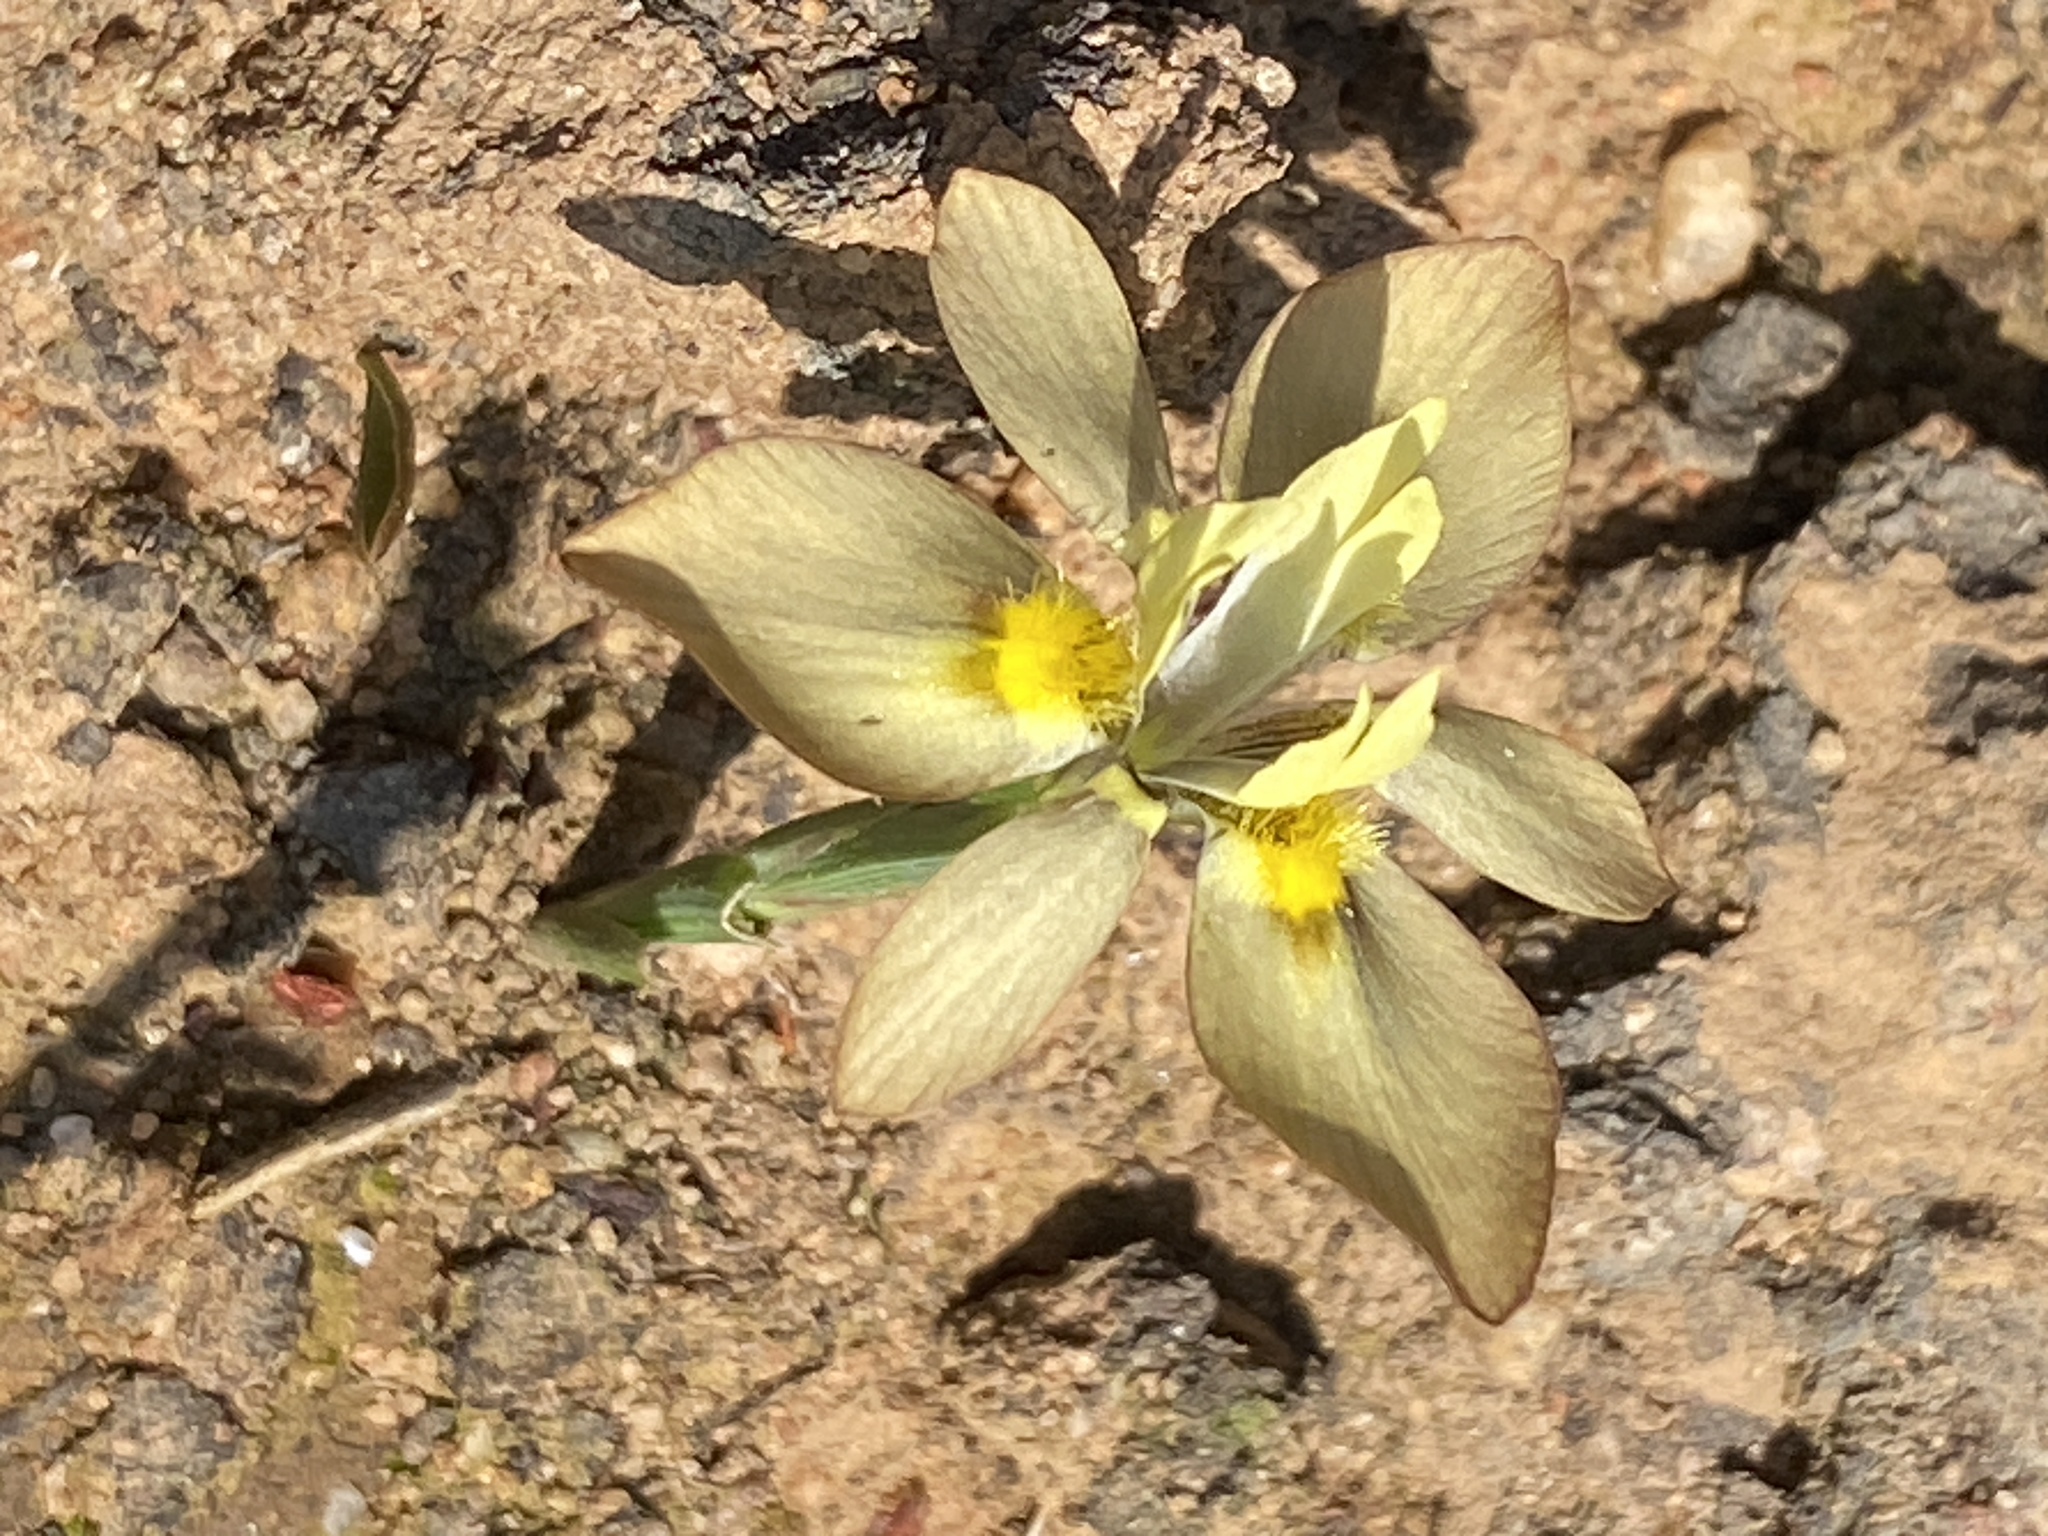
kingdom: Plantae
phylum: Tracheophyta
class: Liliopsida
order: Asparagales
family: Iridaceae
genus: Moraea
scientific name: Moraea ciliata
